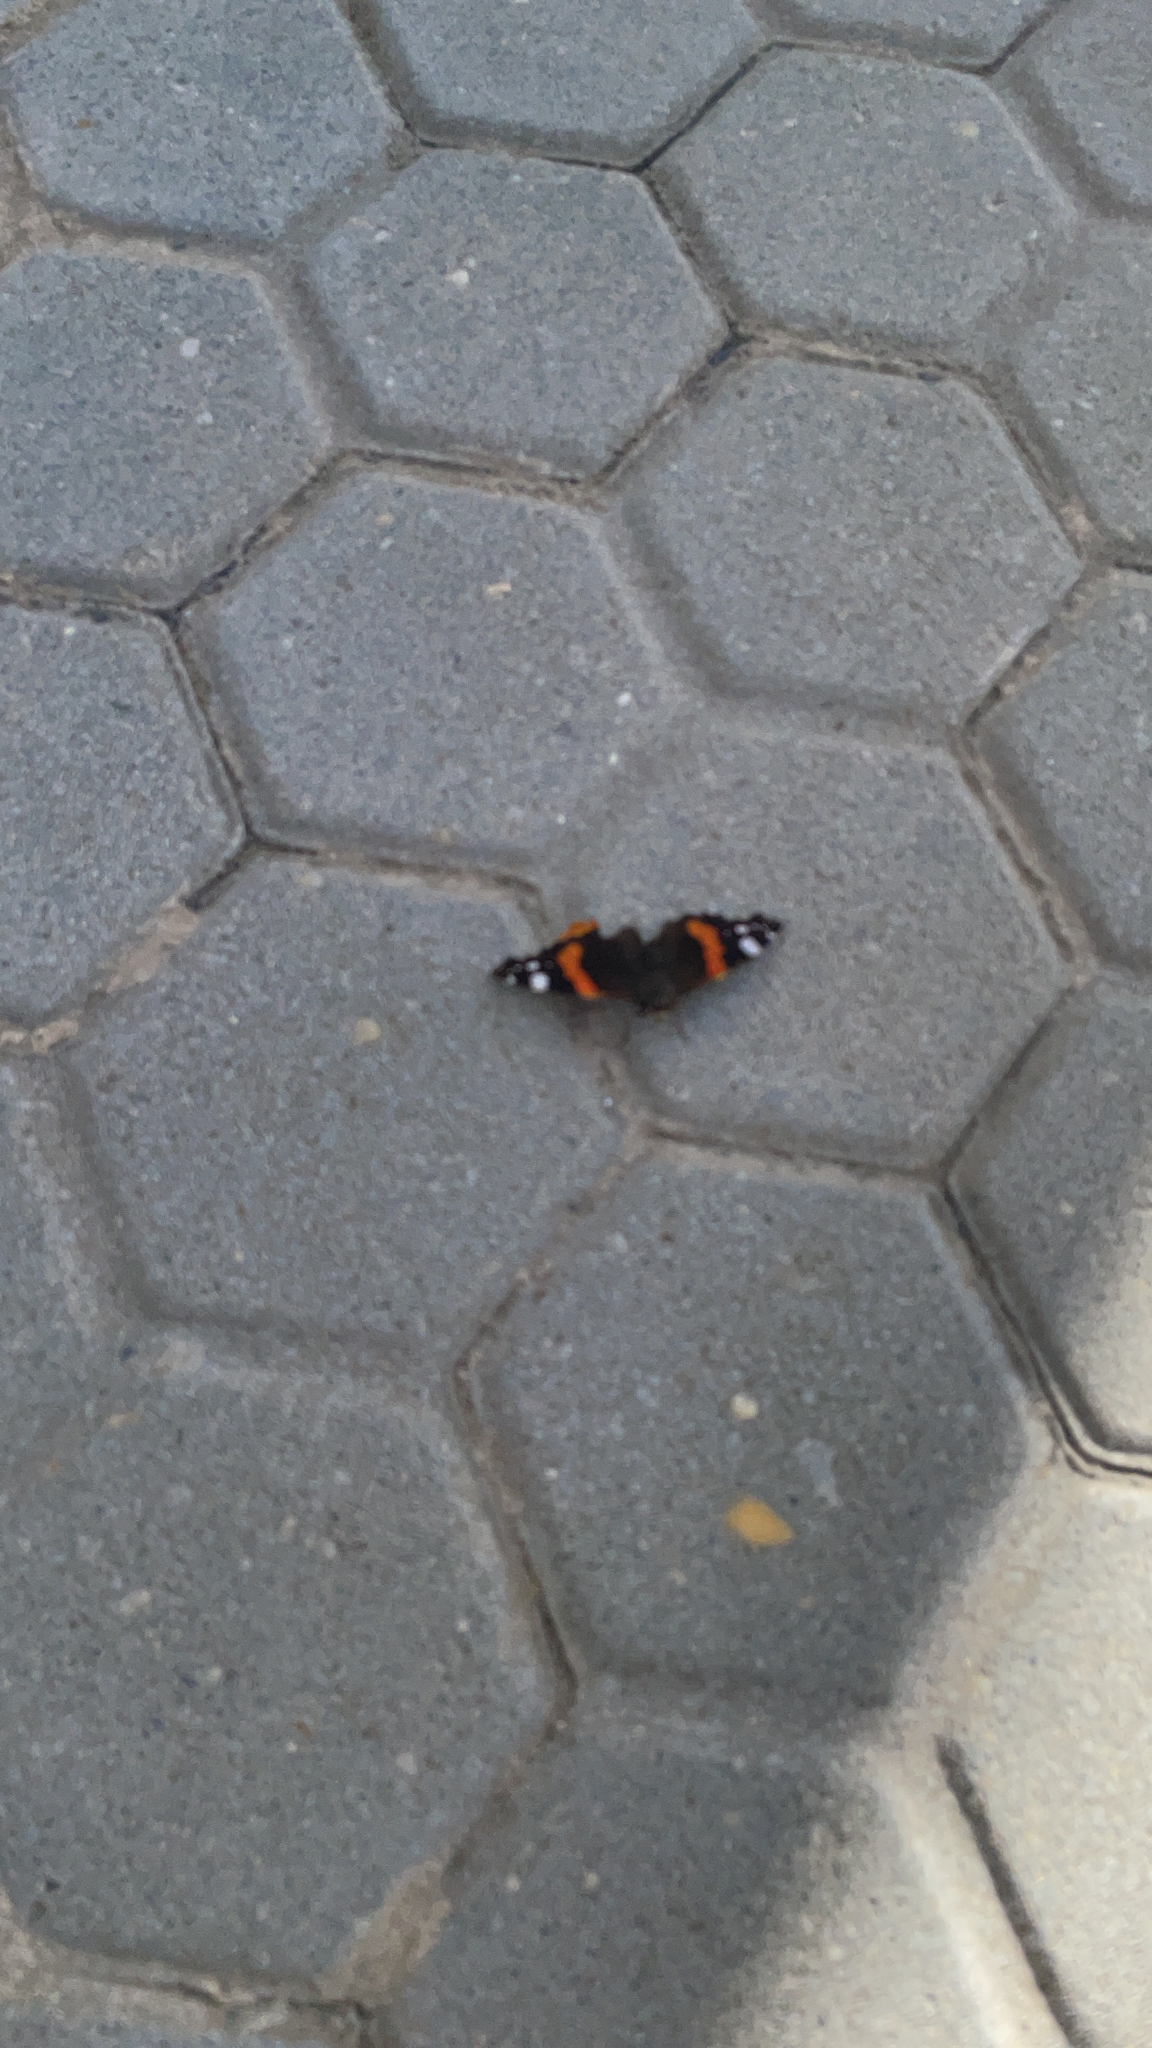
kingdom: Animalia
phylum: Arthropoda
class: Insecta
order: Lepidoptera
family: Nymphalidae
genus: Vanessa
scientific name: Vanessa atalanta
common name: Red admiral
